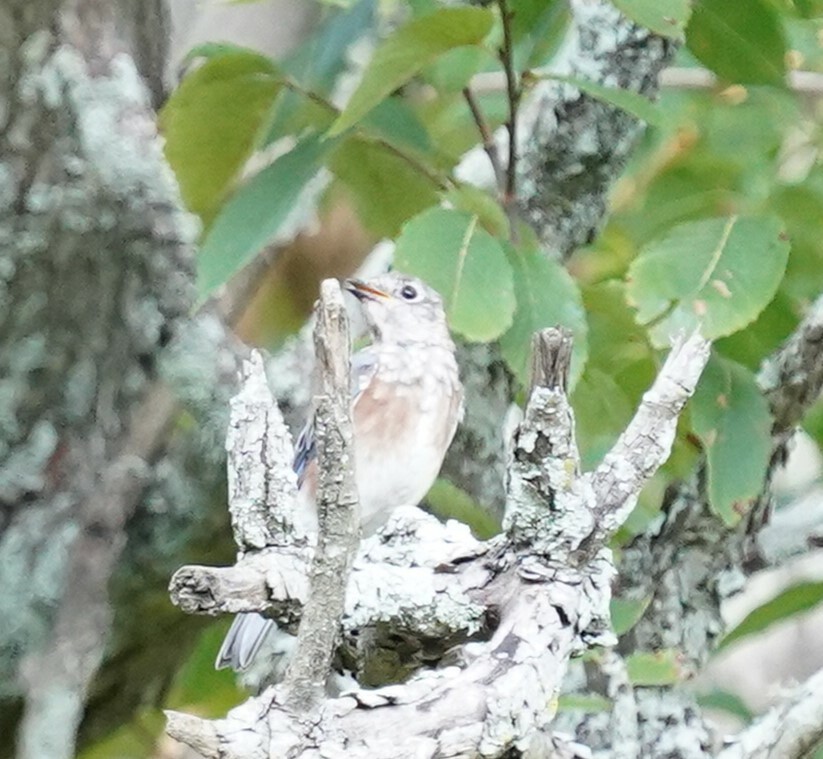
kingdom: Animalia
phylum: Chordata
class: Aves
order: Passeriformes
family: Turdidae
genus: Sialia
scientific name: Sialia sialis
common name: Eastern bluebird
